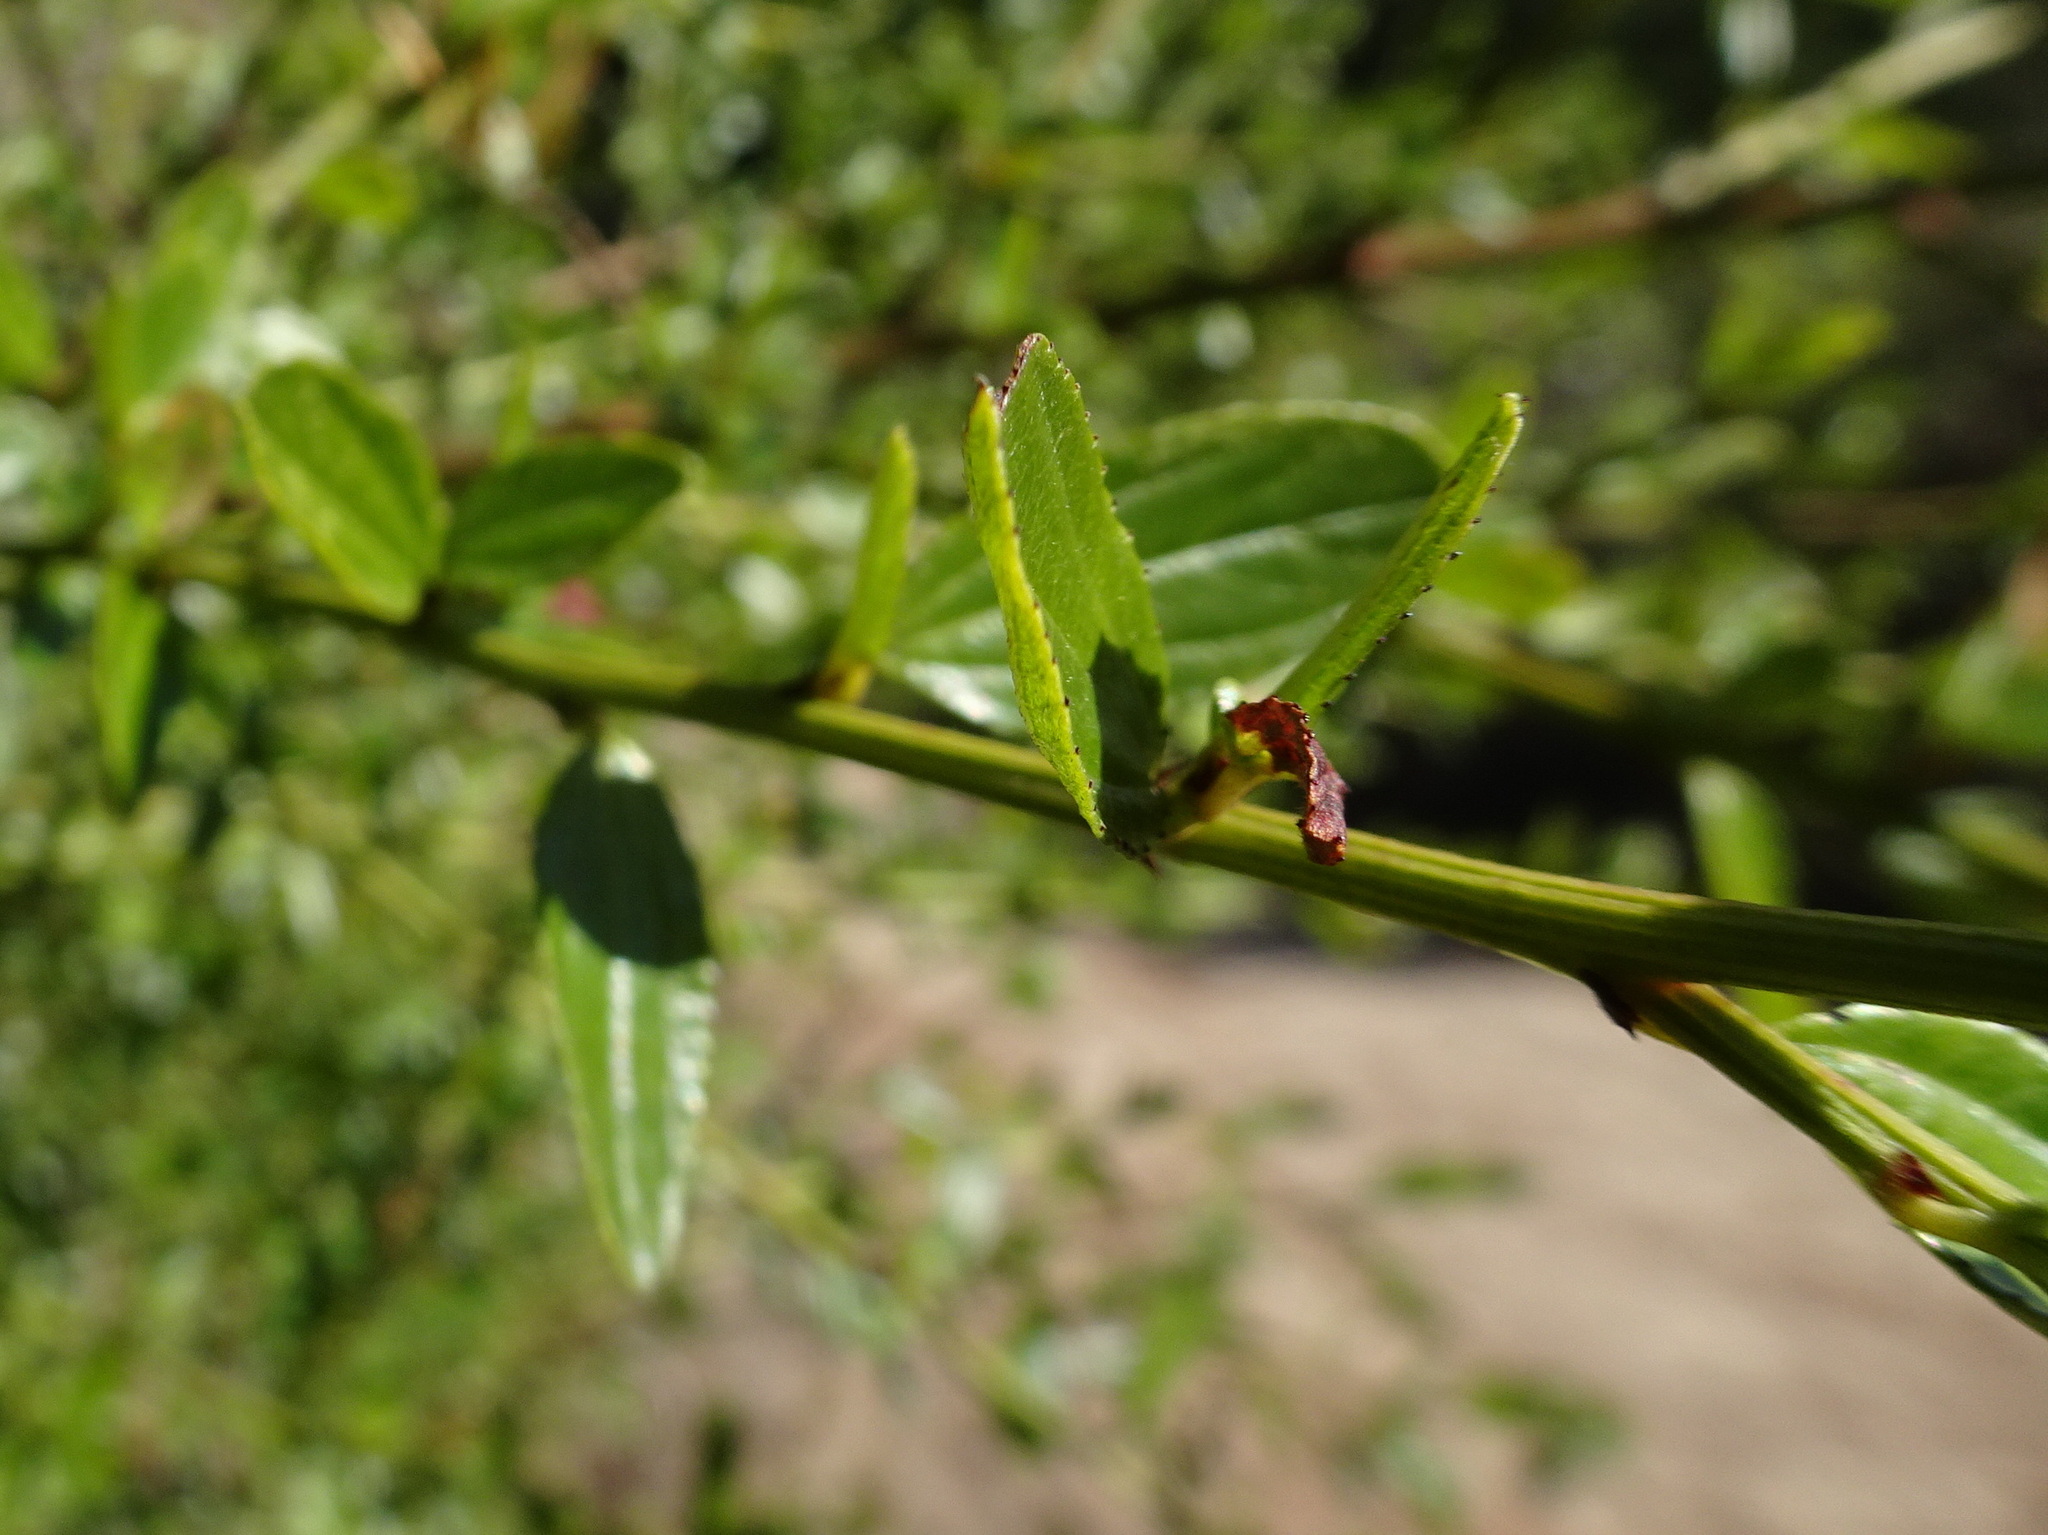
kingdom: Plantae
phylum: Tracheophyta
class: Magnoliopsida
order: Rosales
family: Rhamnaceae
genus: Ceanothus
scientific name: Ceanothus thyrsiflorus
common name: California-lilac
